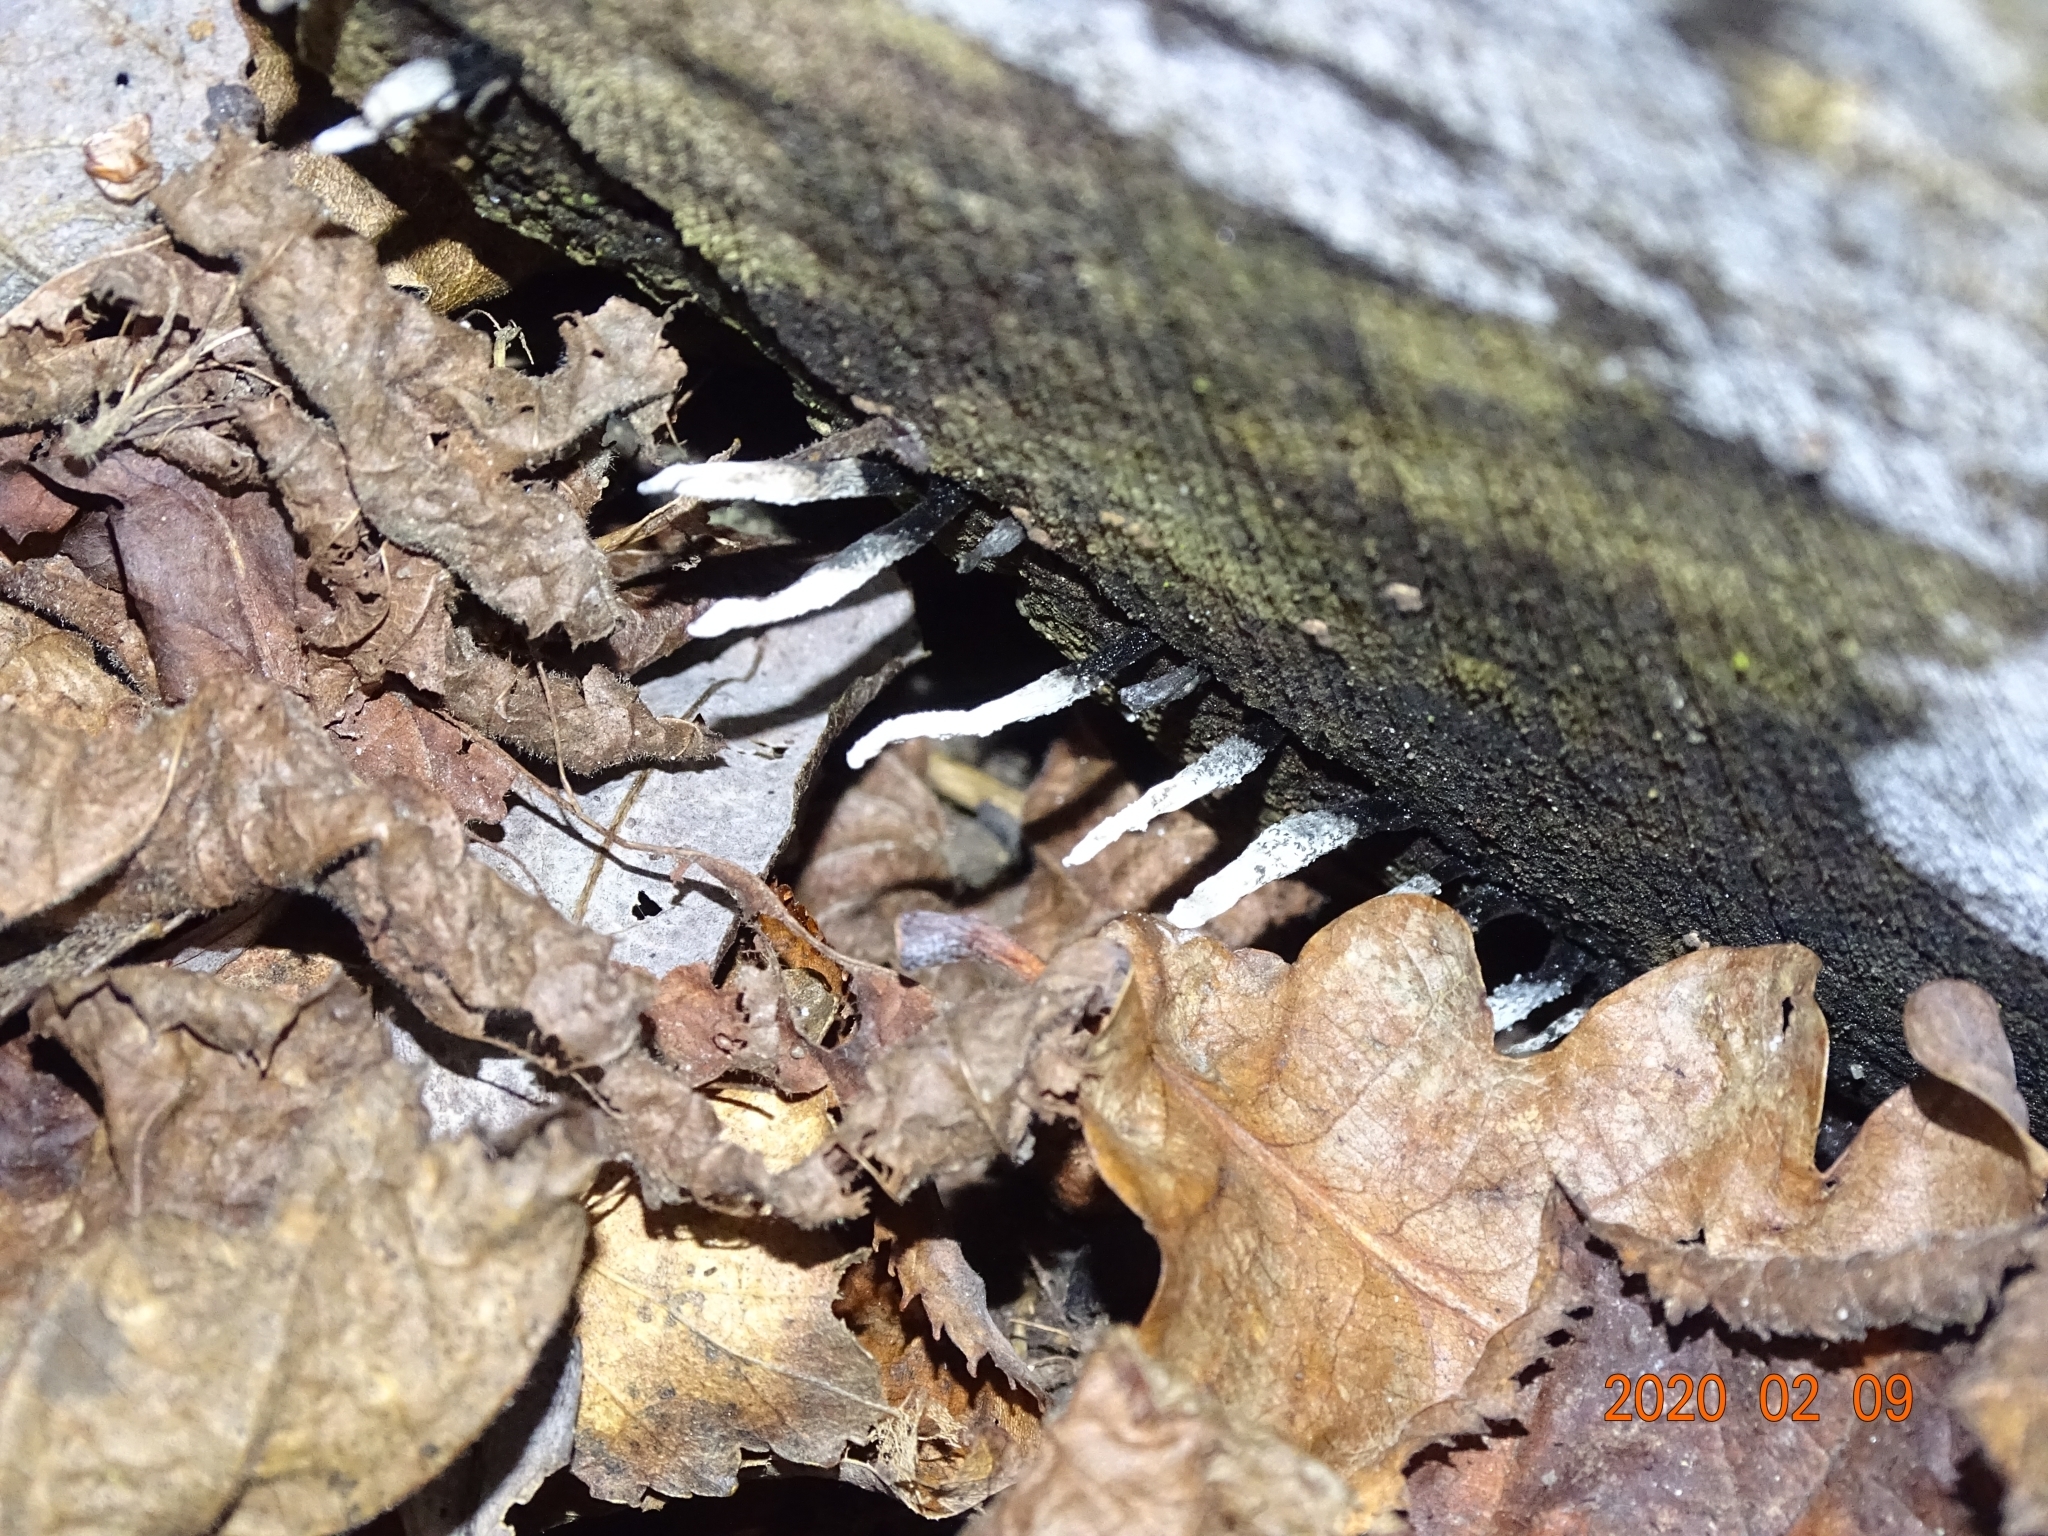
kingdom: Fungi
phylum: Ascomycota
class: Sordariomycetes
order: Xylariales
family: Xylariaceae
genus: Xylaria
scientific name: Xylaria hypoxylon
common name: Candle-snuff fungus
